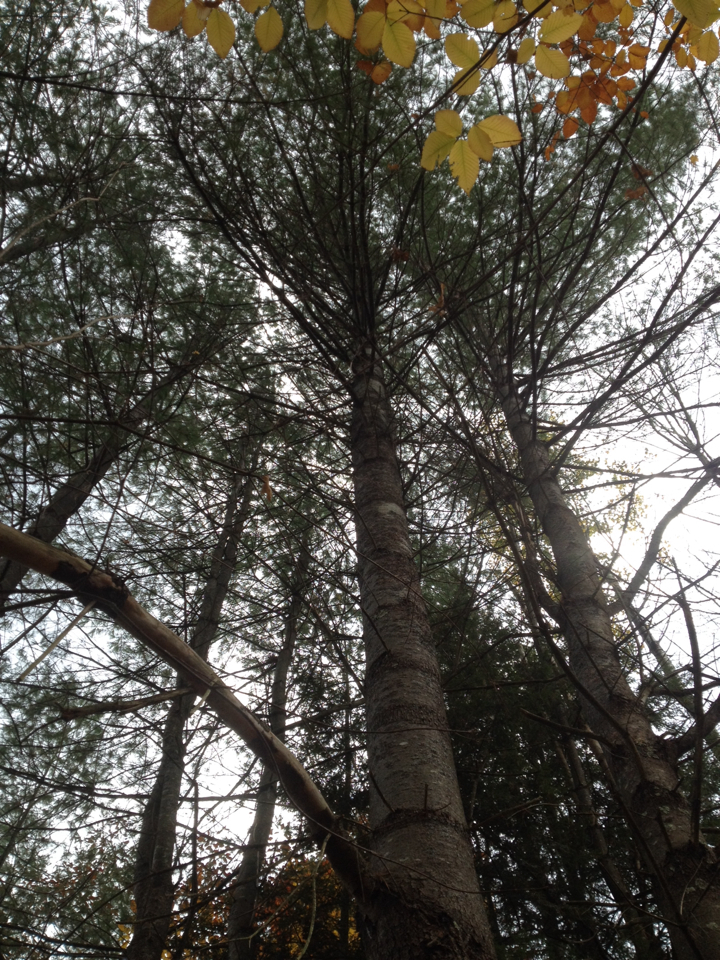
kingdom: Plantae
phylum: Tracheophyta
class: Pinopsida
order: Pinales
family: Pinaceae
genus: Pinus
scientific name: Pinus strobus
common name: Weymouth pine
